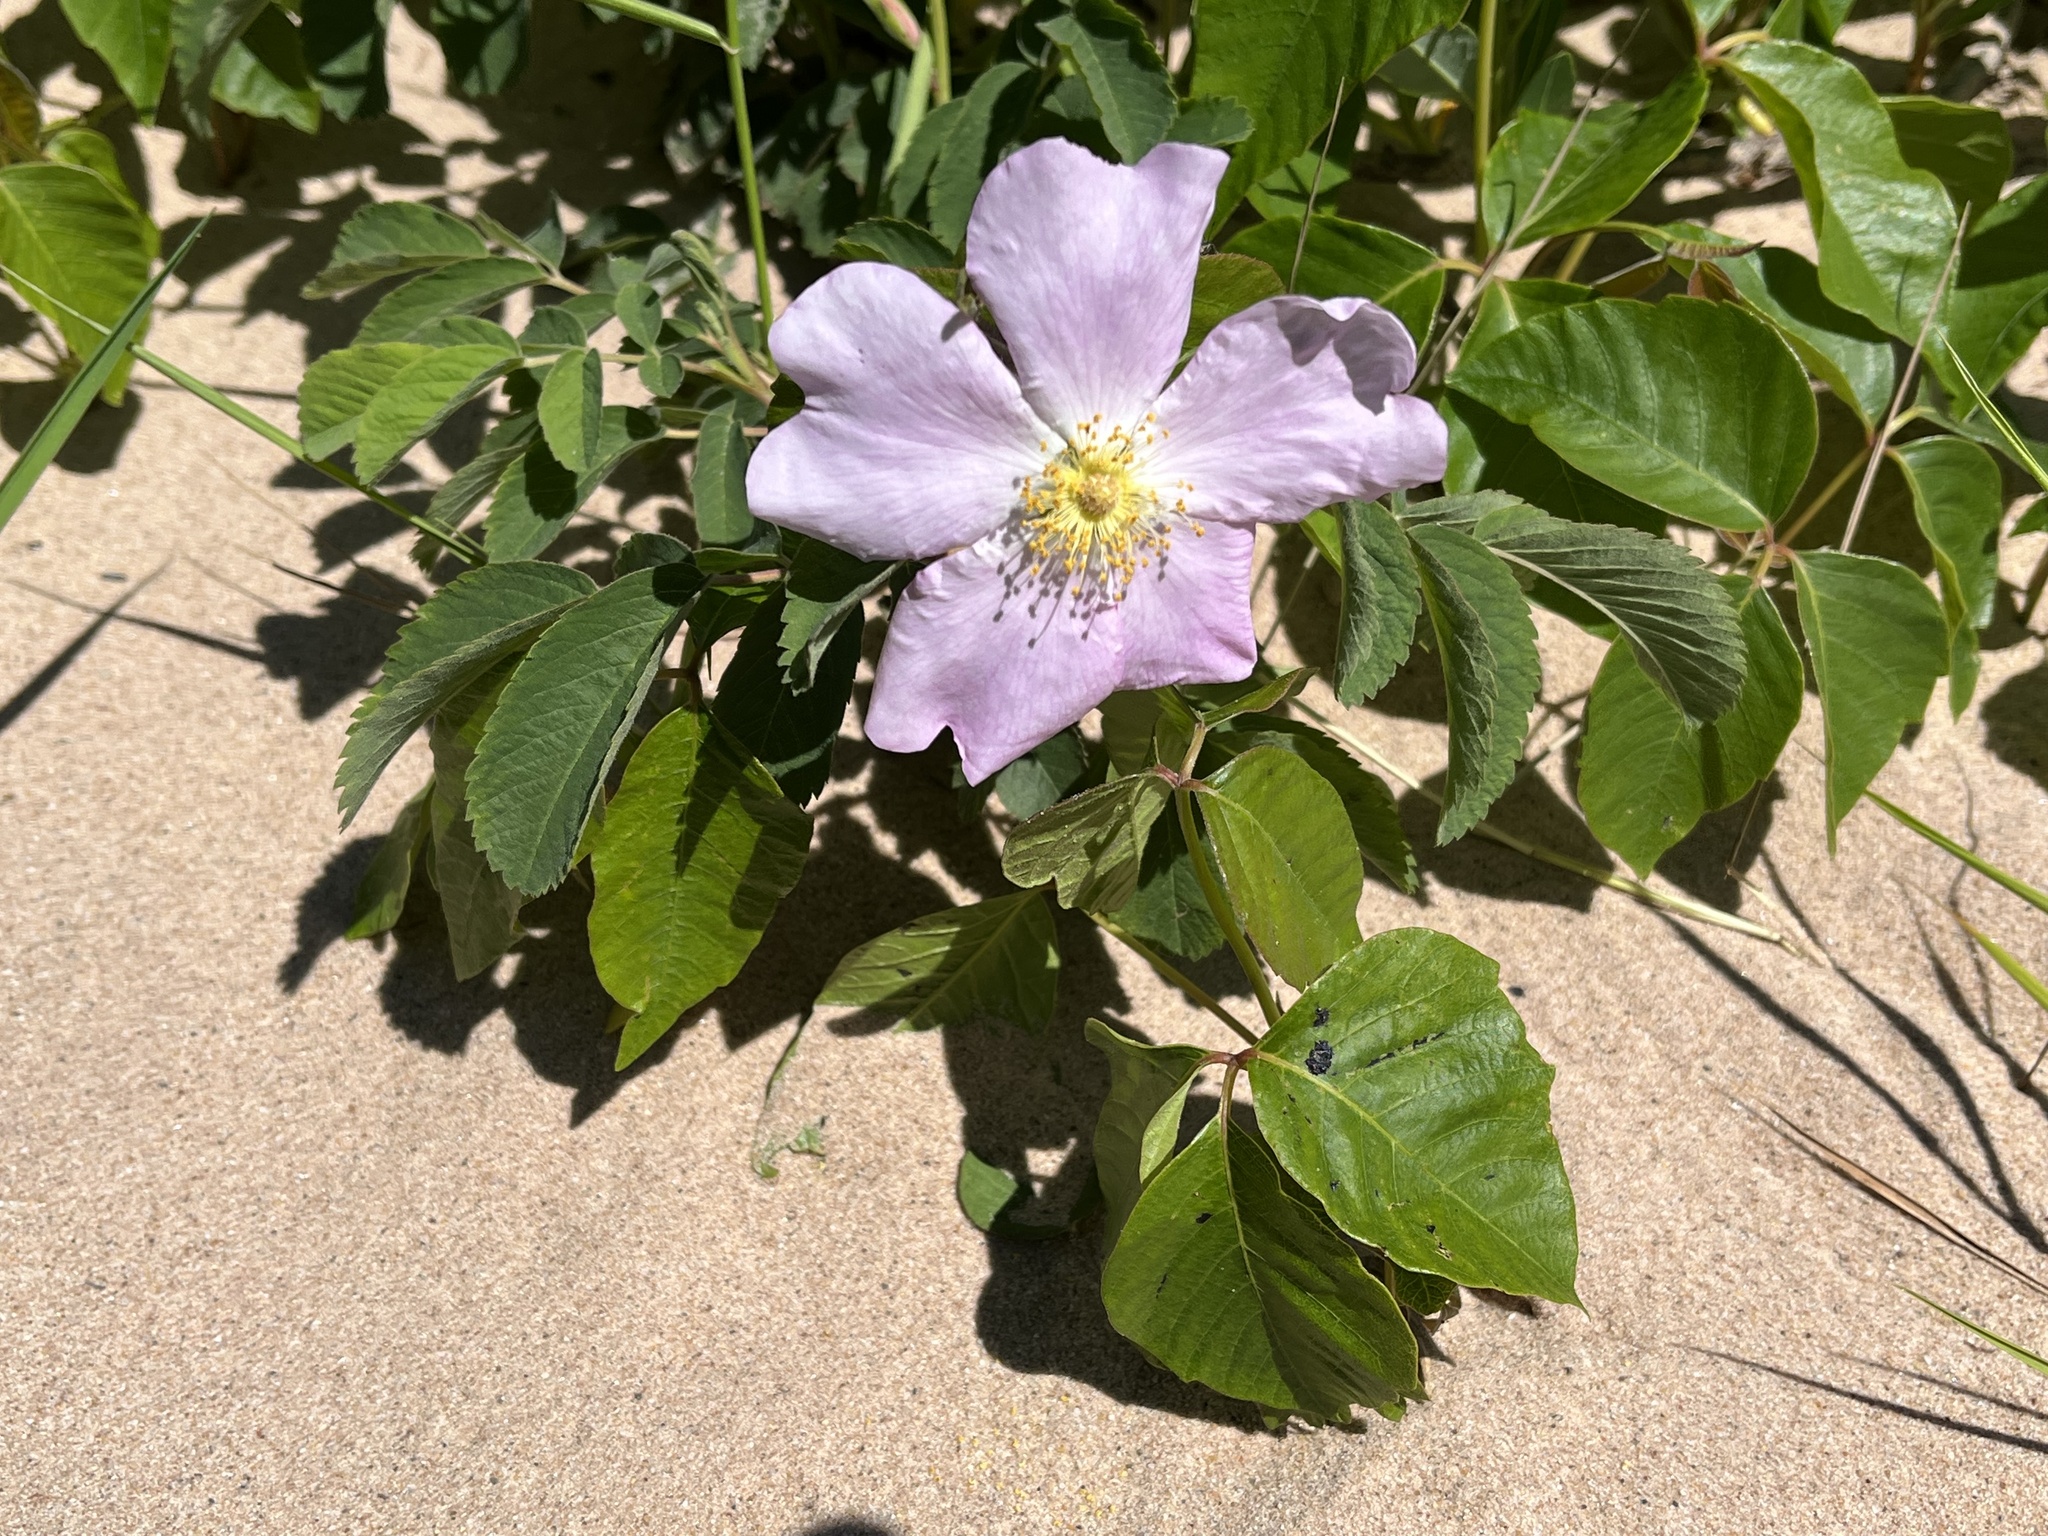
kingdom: Plantae
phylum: Tracheophyta
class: Magnoliopsida
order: Rosales
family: Rosaceae
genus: Rosa
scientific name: Rosa blanda
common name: Smooth rose
